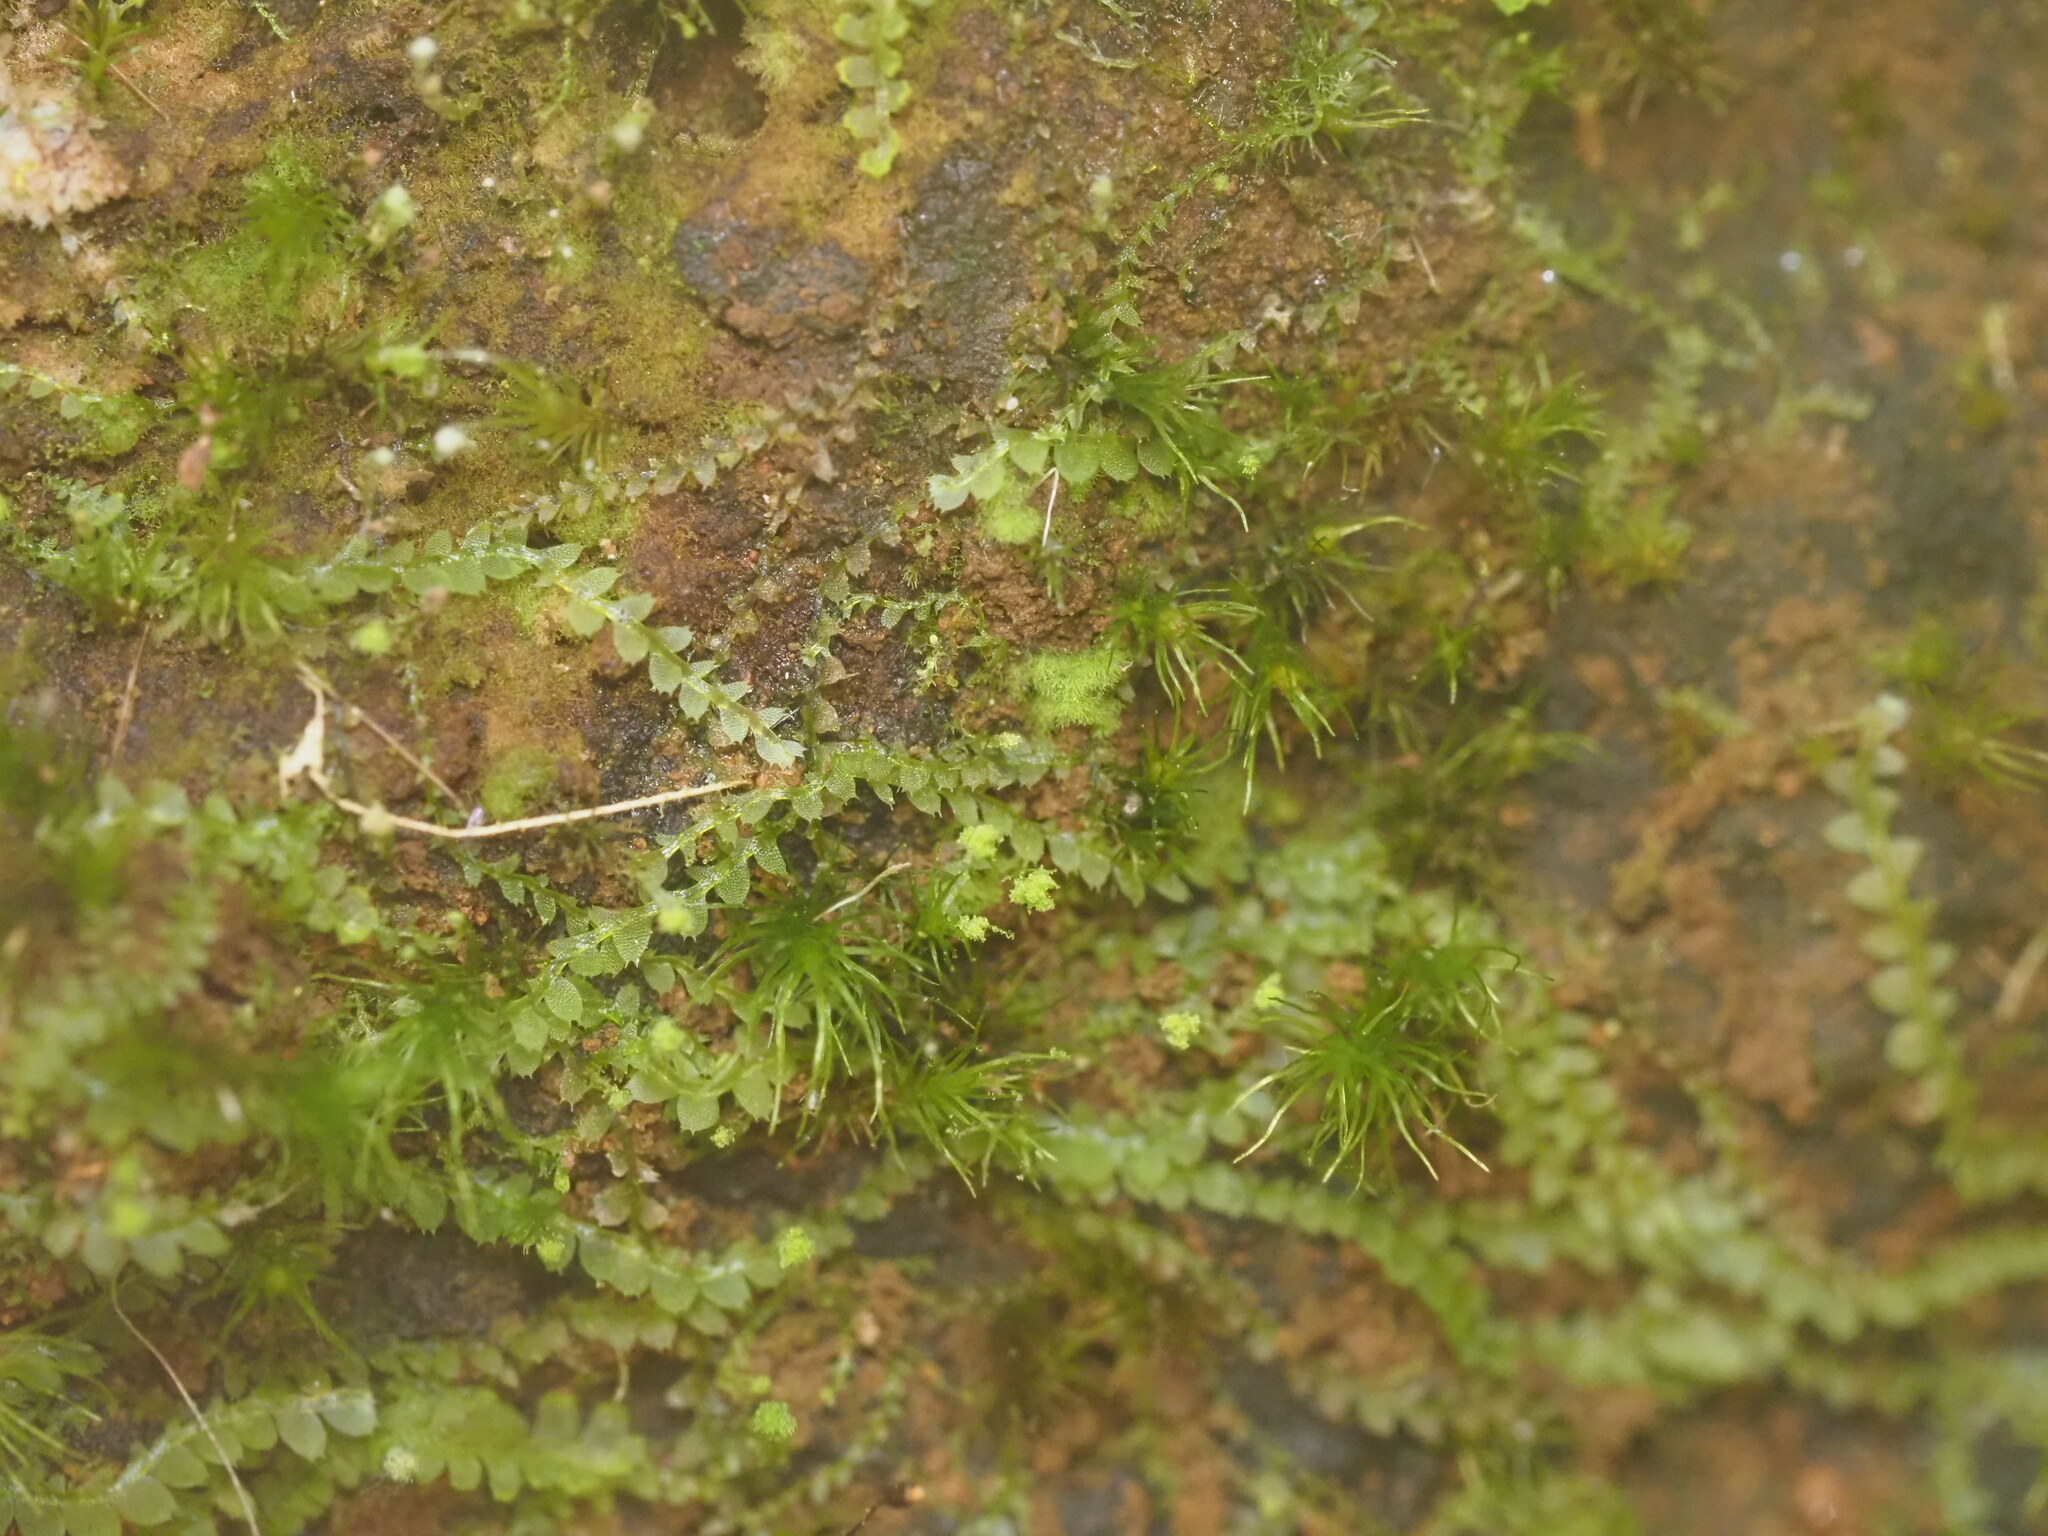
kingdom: Plantae
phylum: Marchantiophyta
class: Jungermanniopsida
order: Jungermanniales
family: Calypogeiaceae
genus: Asperifolia
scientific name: Asperifolia arguta
